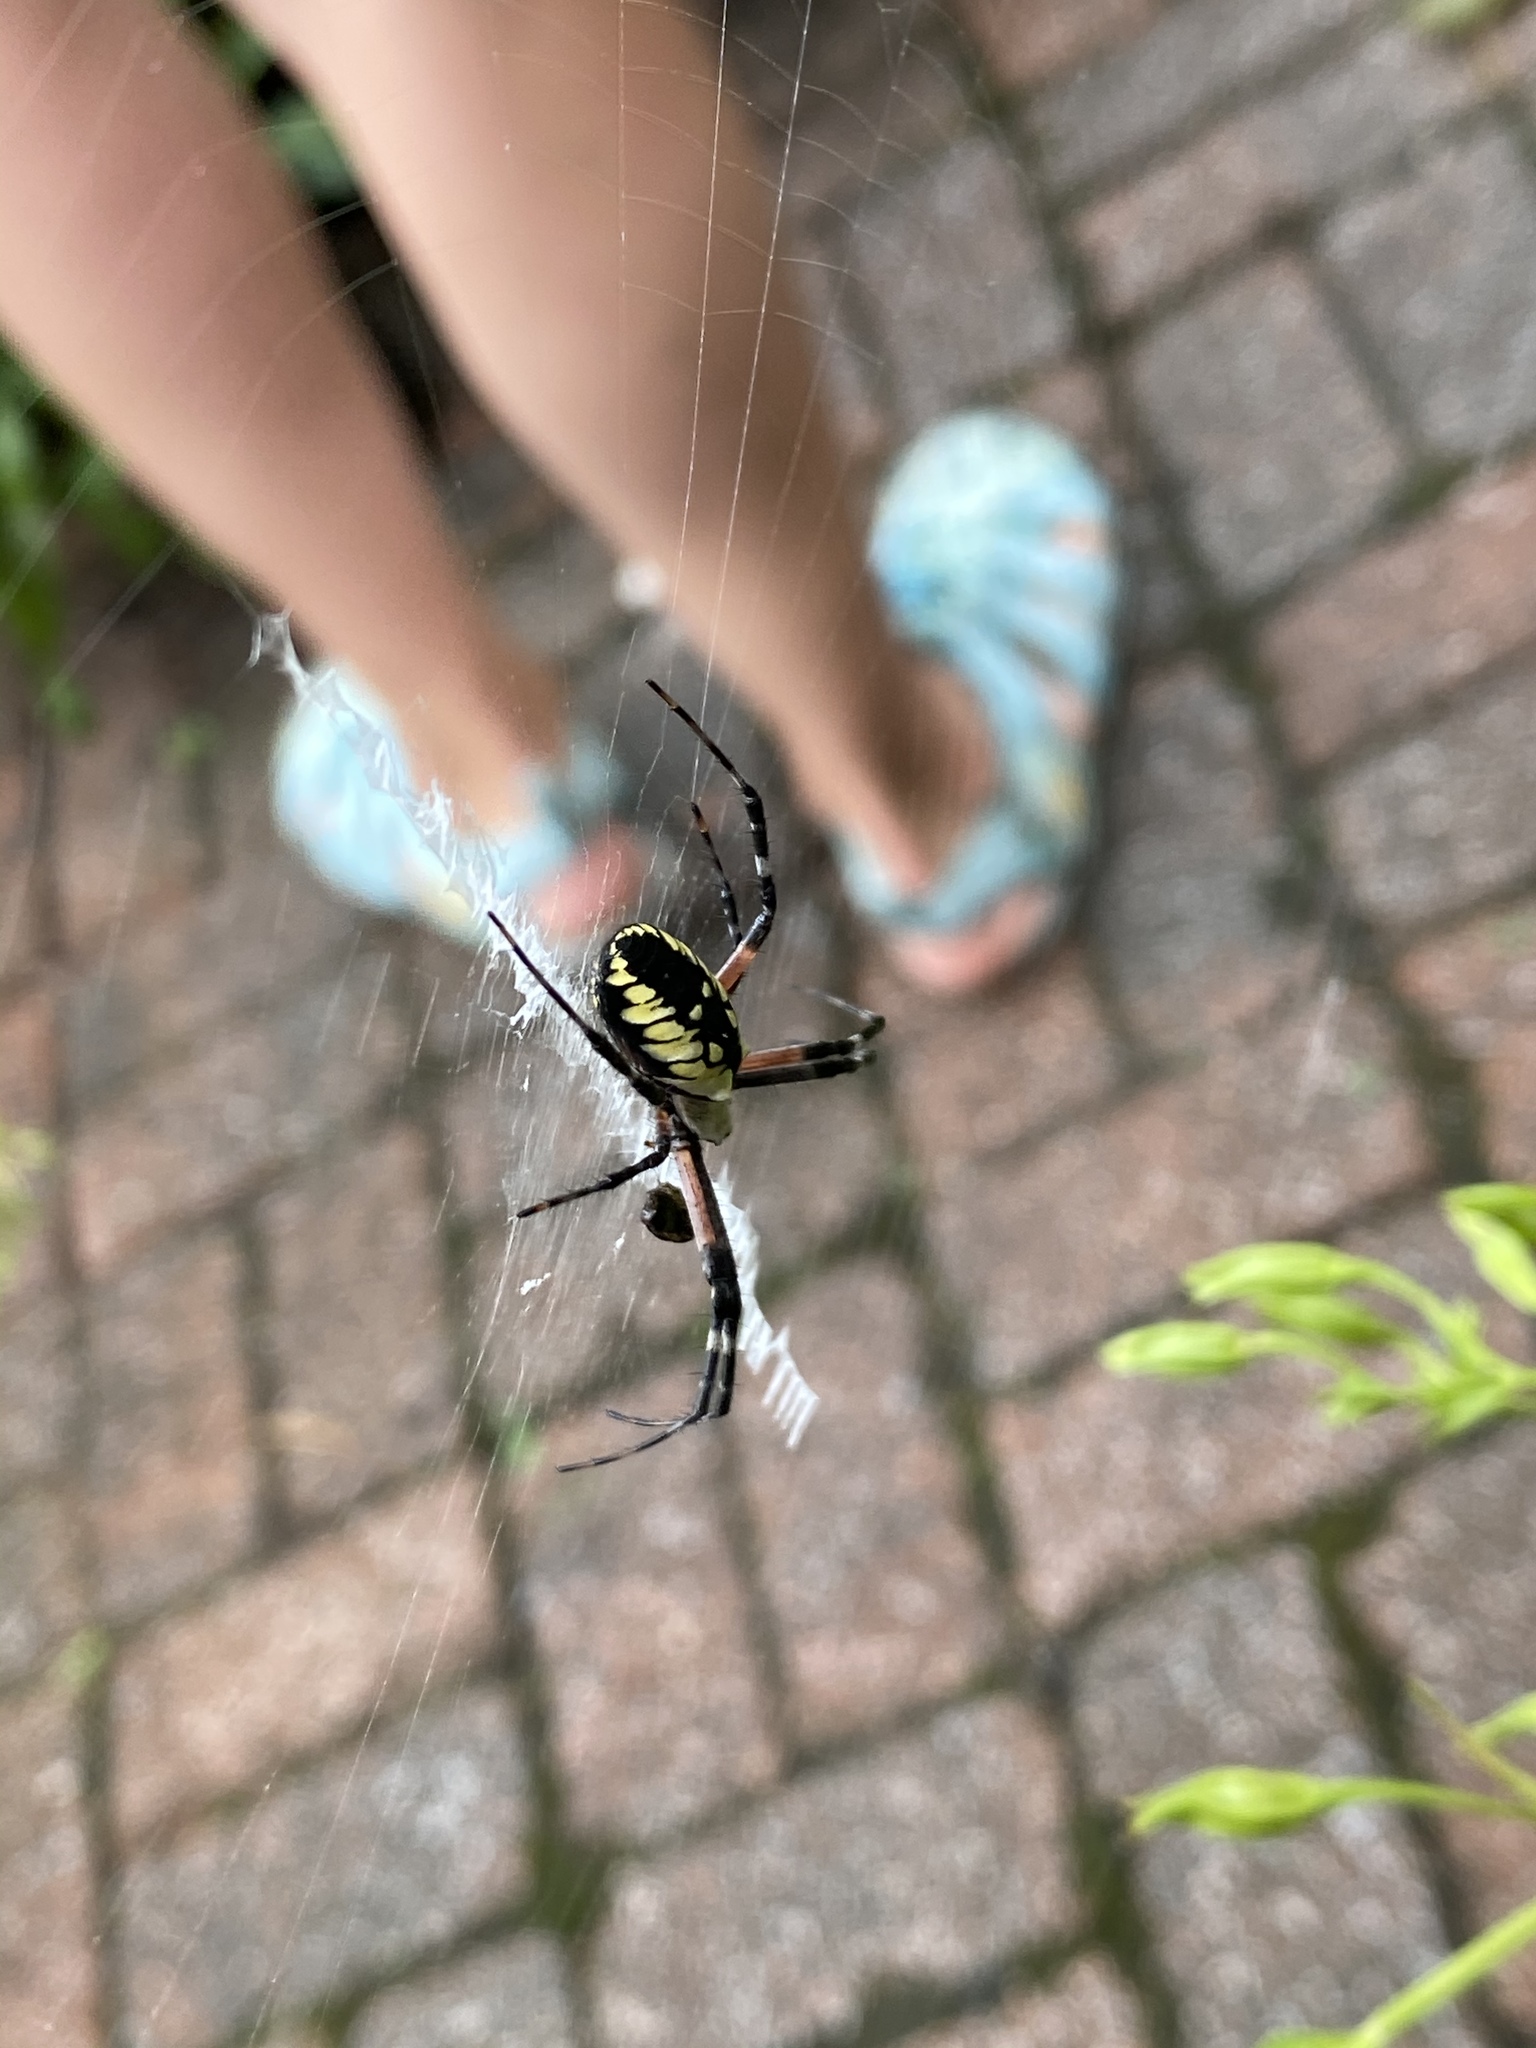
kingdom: Animalia
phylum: Arthropoda
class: Arachnida
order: Araneae
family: Araneidae
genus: Argiope
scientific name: Argiope aurantia
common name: Orb weavers
